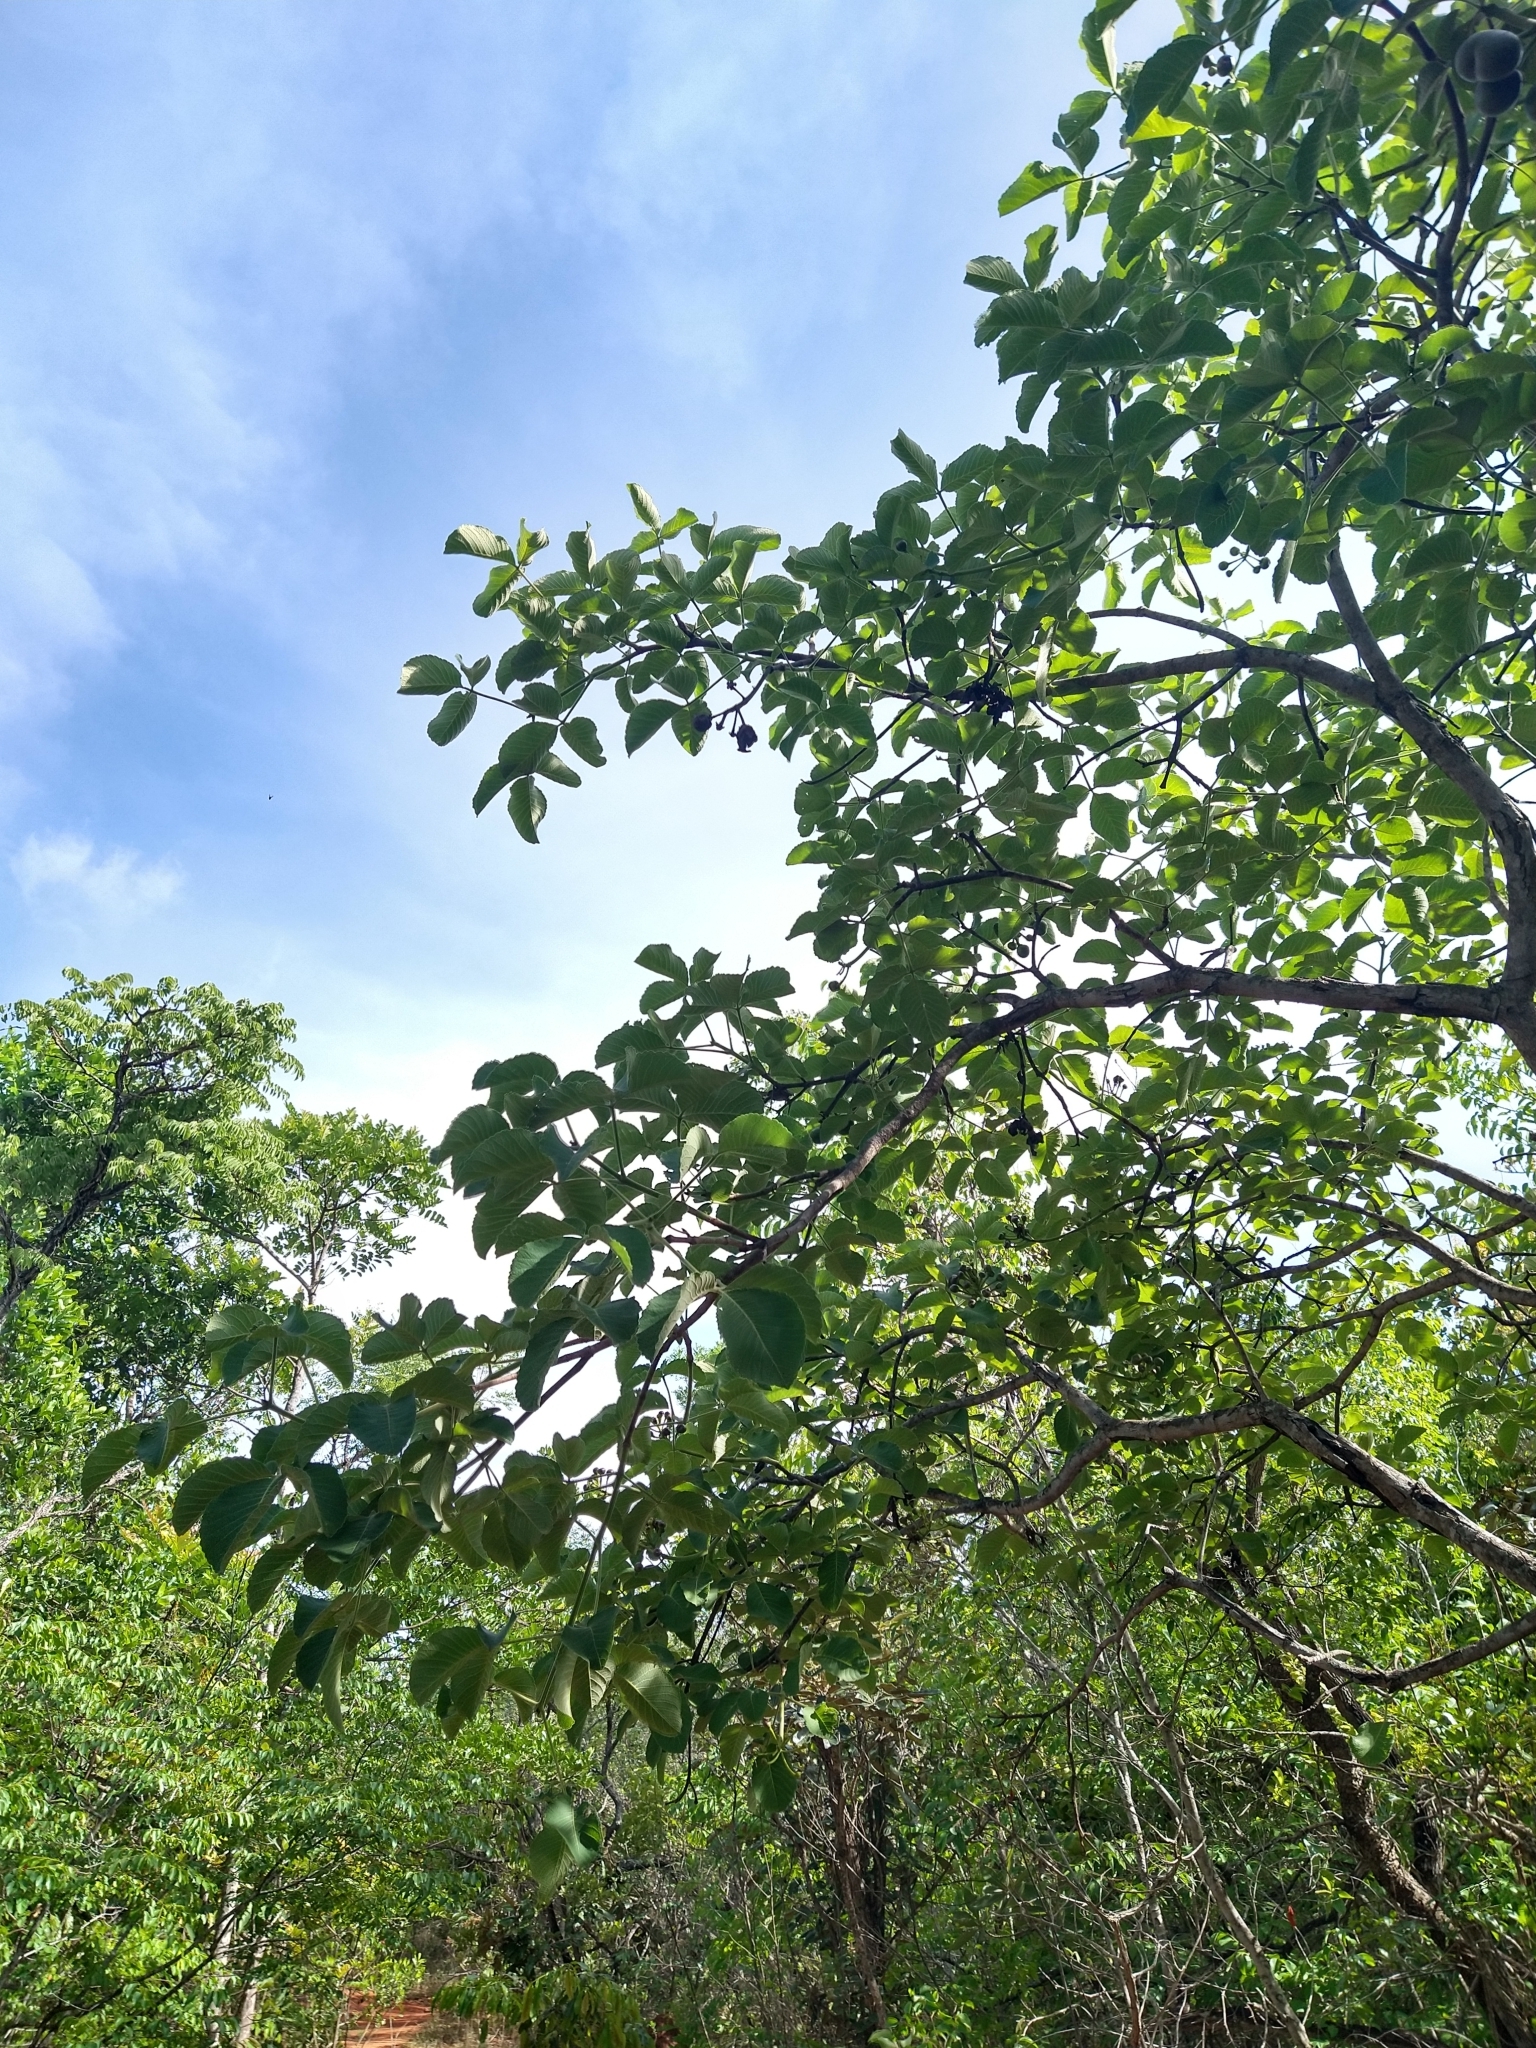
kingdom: Plantae
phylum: Tracheophyta
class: Magnoliopsida
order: Malpighiales
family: Caryocaraceae
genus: Caryocar
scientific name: Caryocar brasiliense
